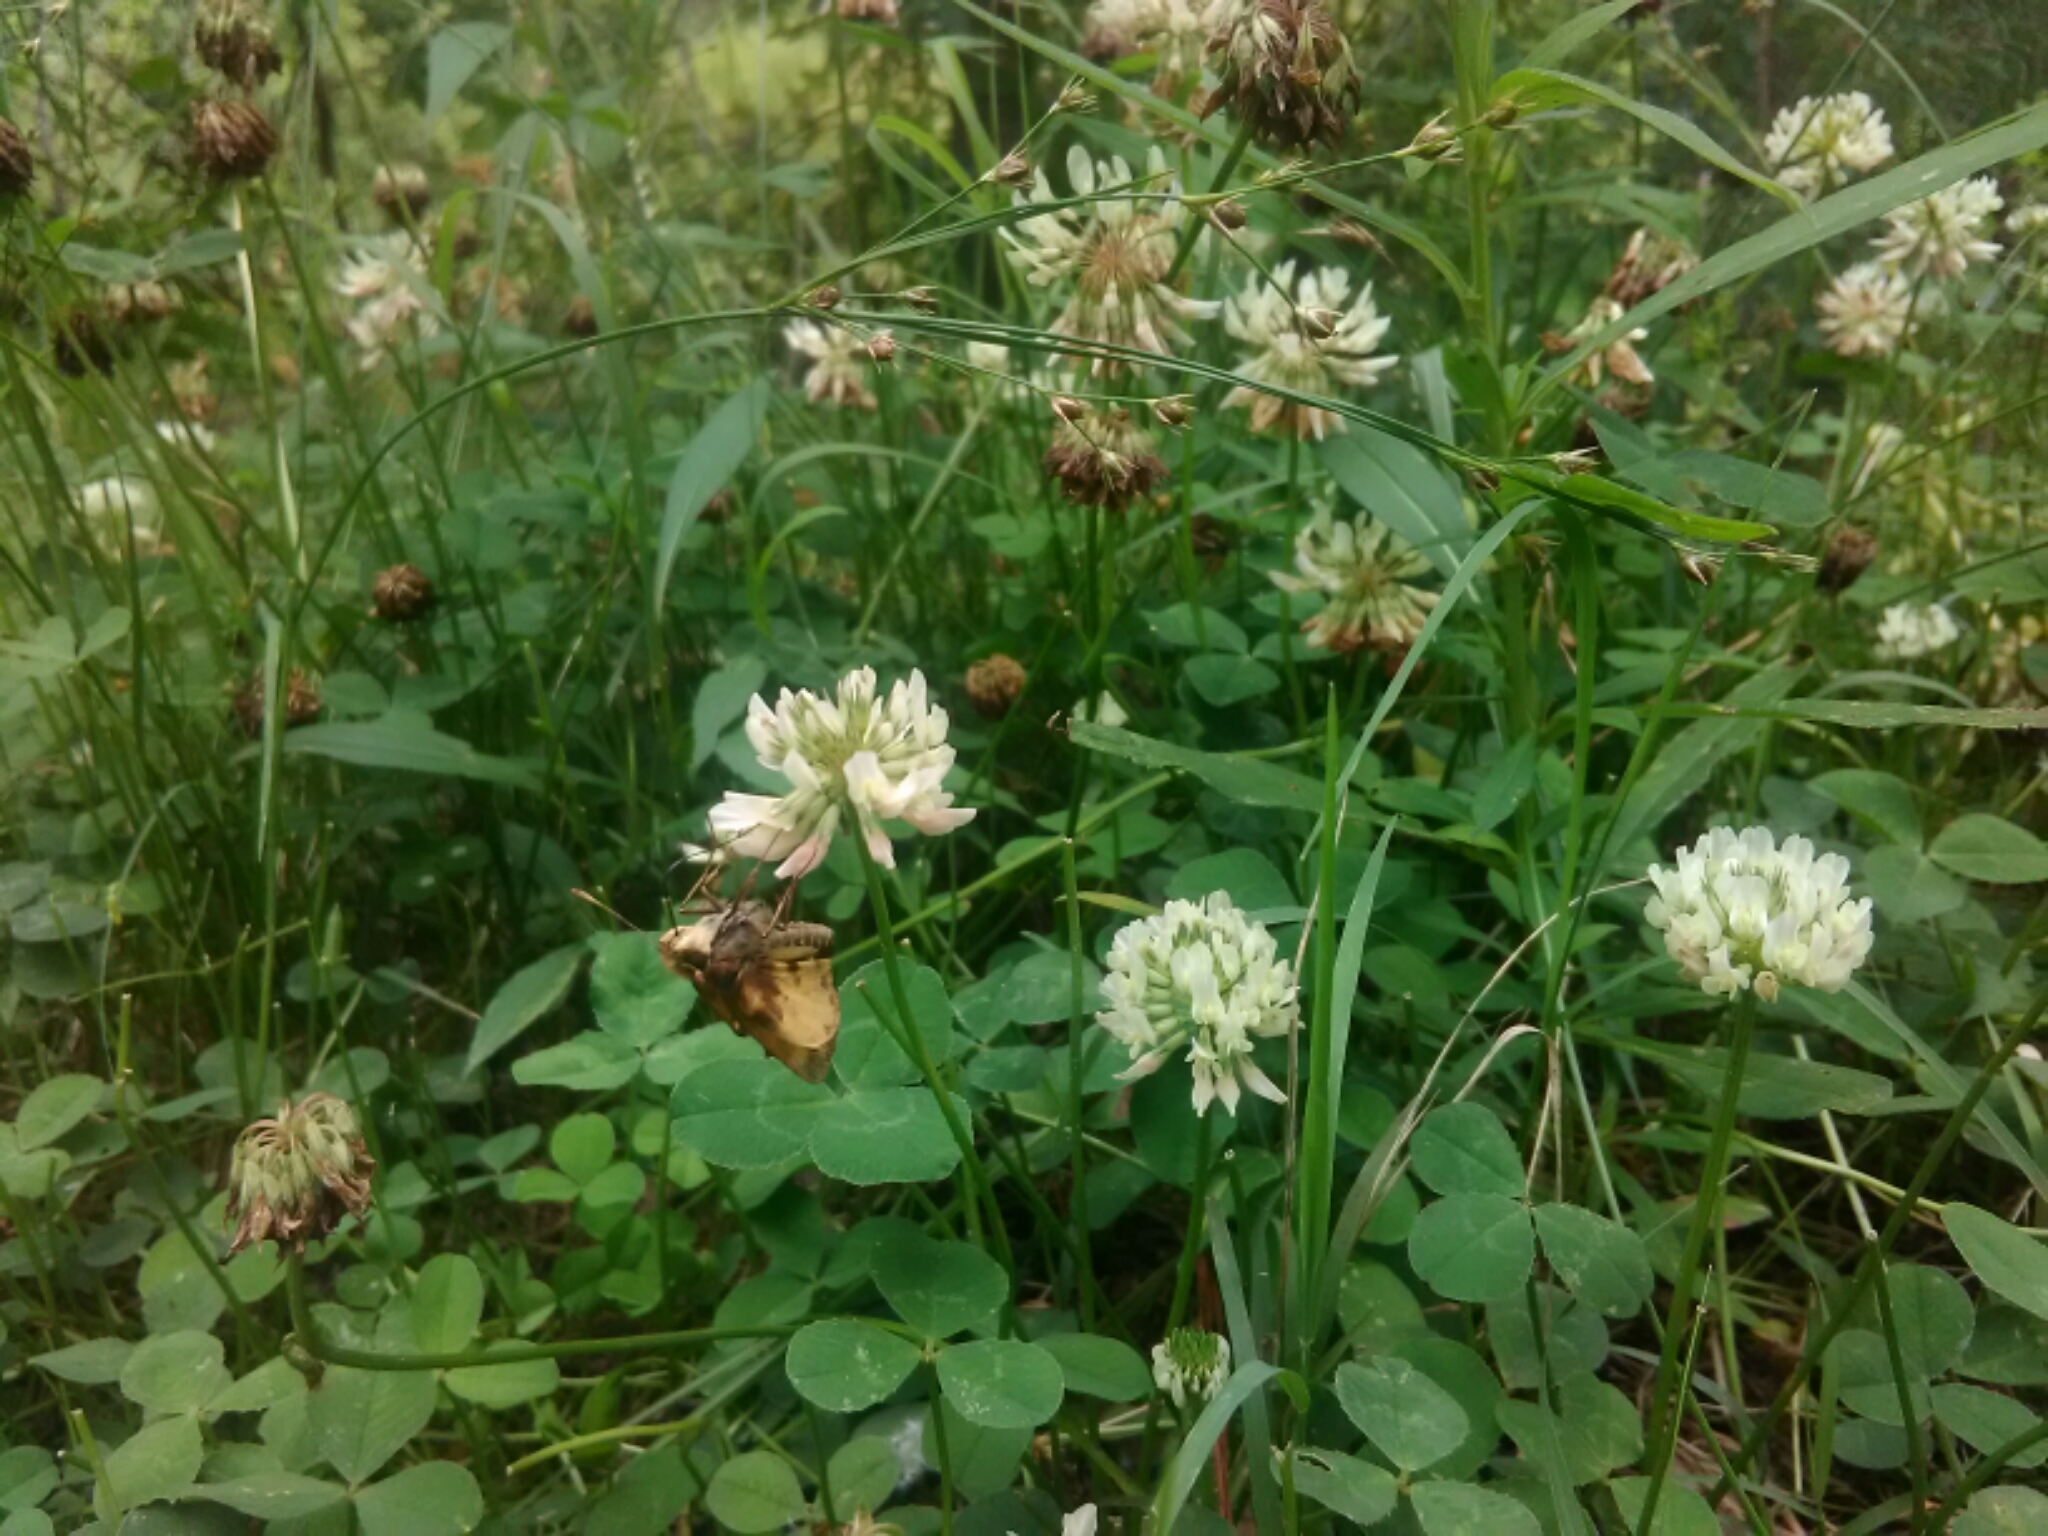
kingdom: Animalia
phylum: Arthropoda
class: Insecta
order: Lepidoptera
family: Hesperiidae
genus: Lon
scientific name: Lon zabulon
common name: Zabulon skipper
